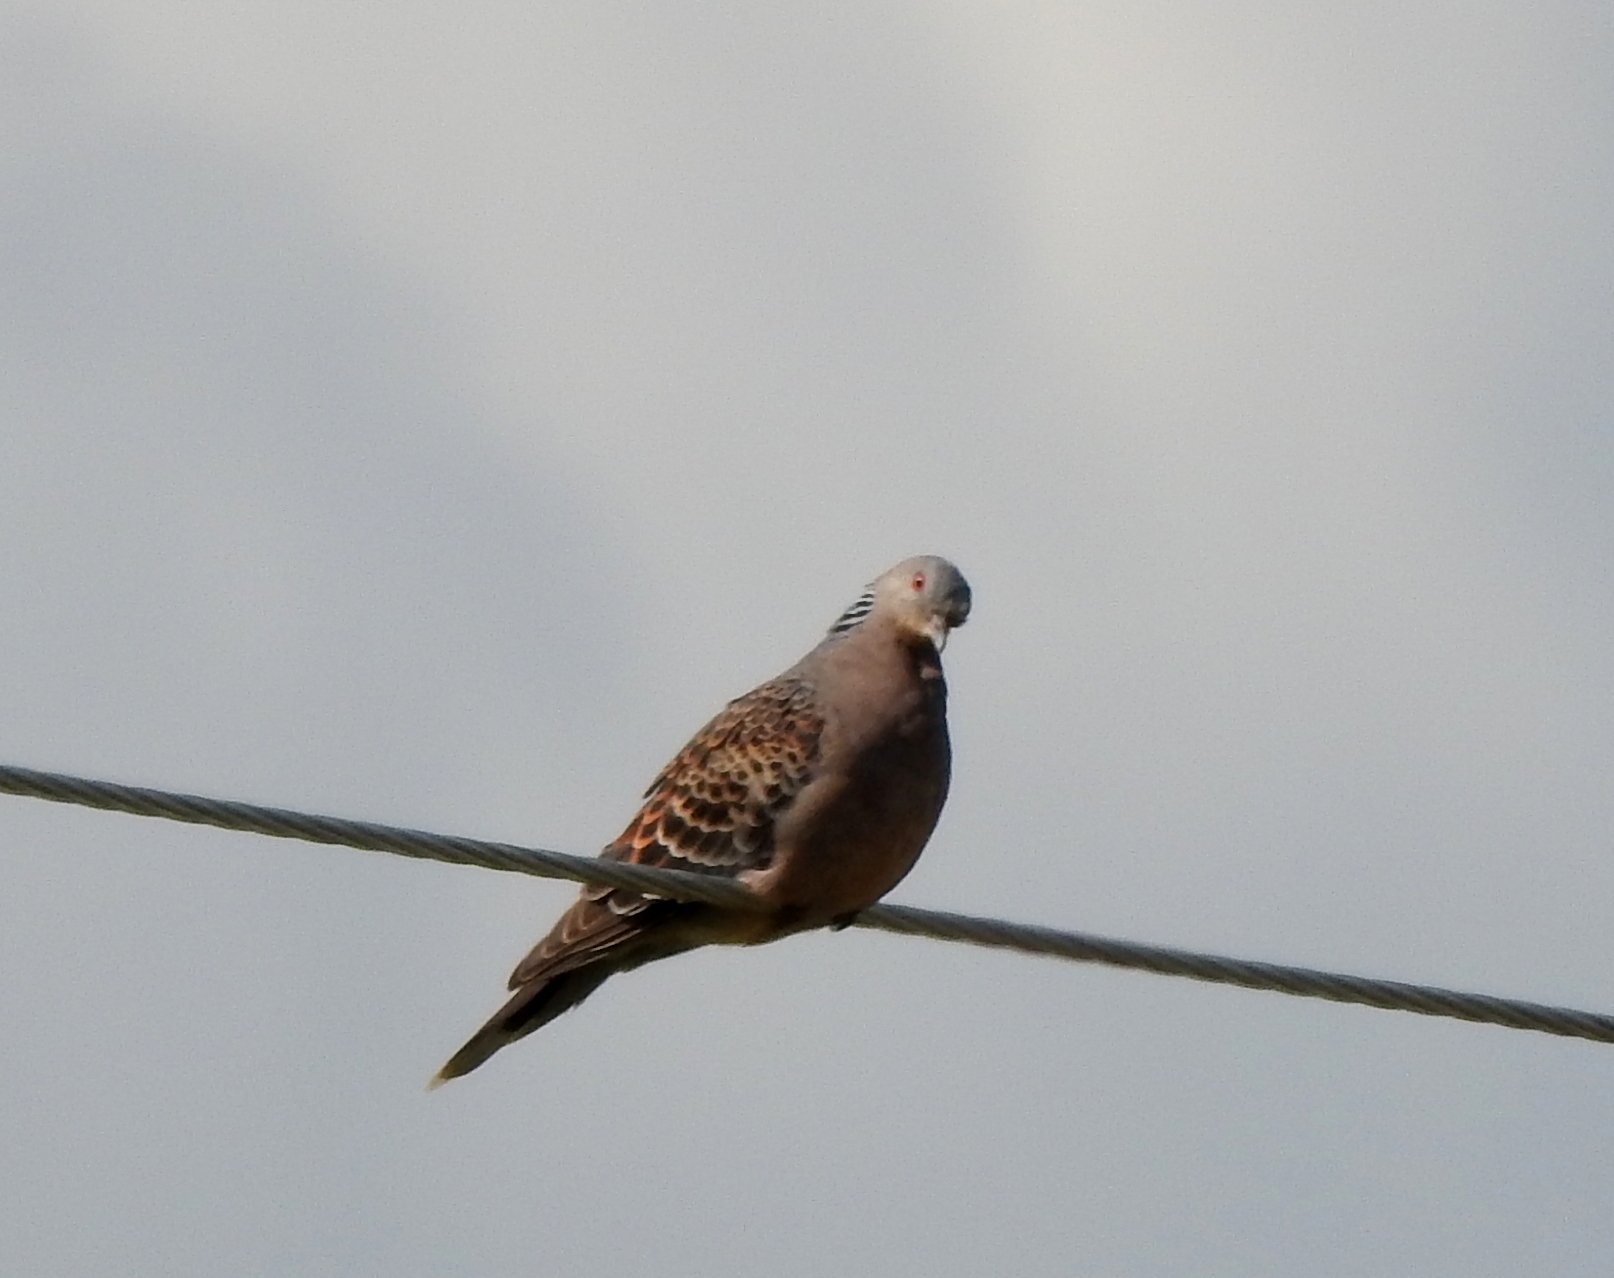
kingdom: Animalia
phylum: Chordata
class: Aves
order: Columbiformes
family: Columbidae
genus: Streptopelia
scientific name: Streptopelia orientalis
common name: Oriental turtle dove
